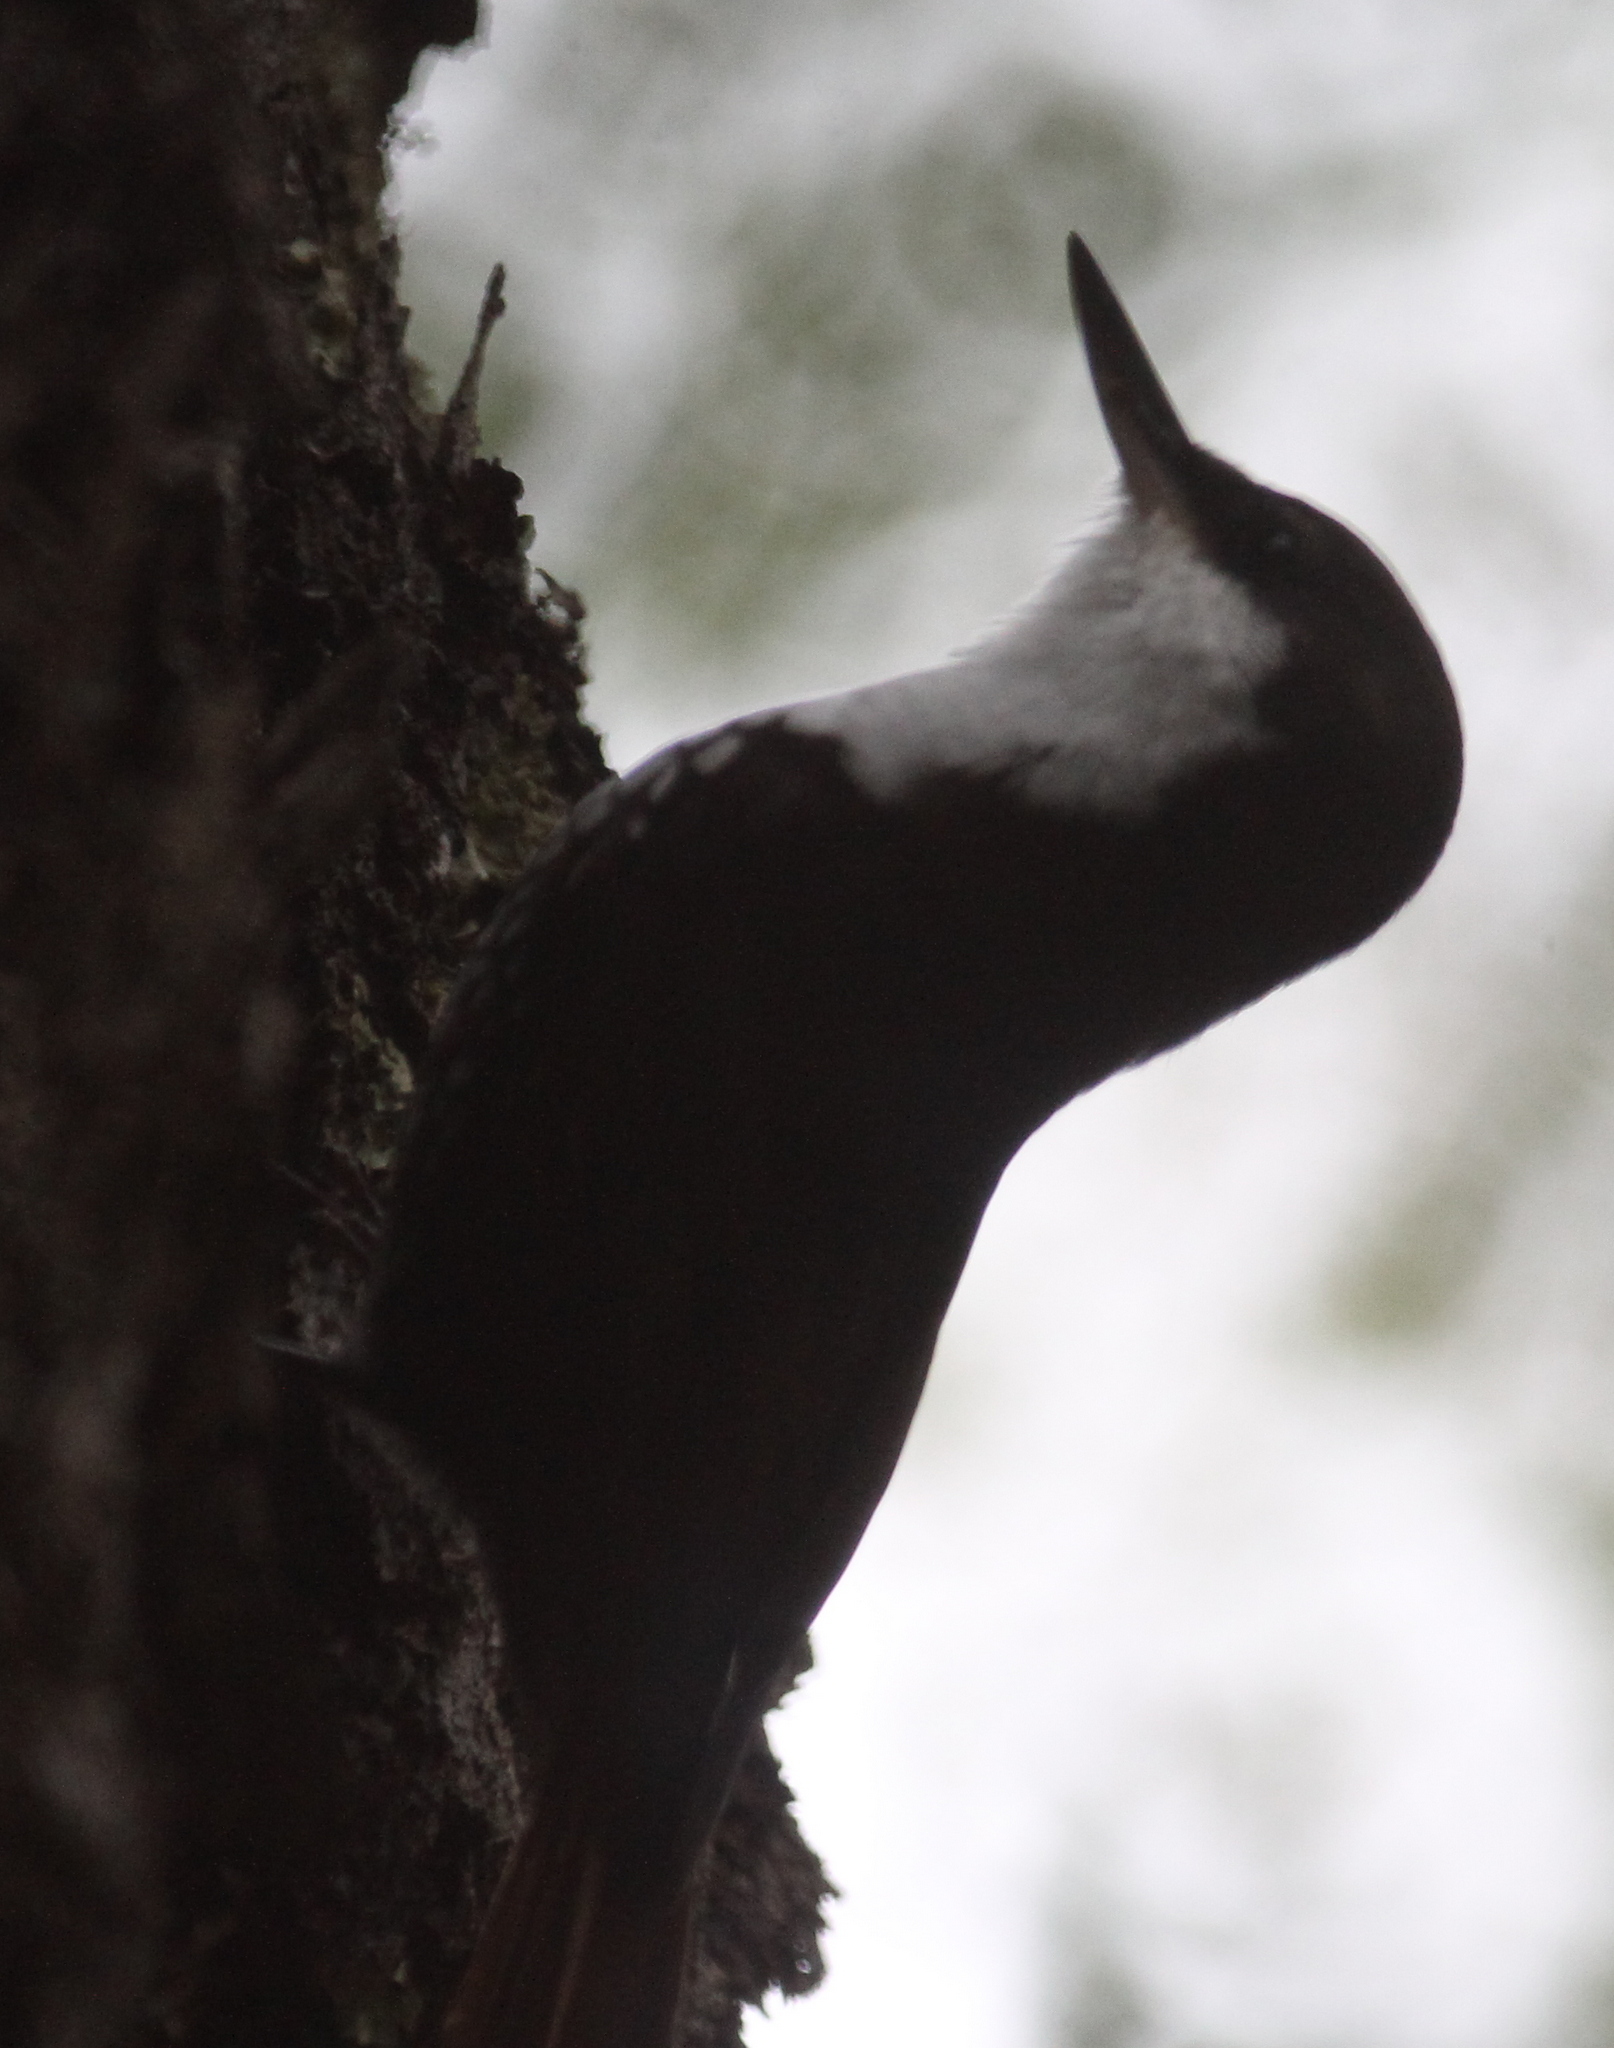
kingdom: Animalia
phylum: Chordata
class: Aves
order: Passeriformes
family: Furnariidae
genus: Pygarrhichas
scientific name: Pygarrhichas albogularis
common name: White-throated treerunner
